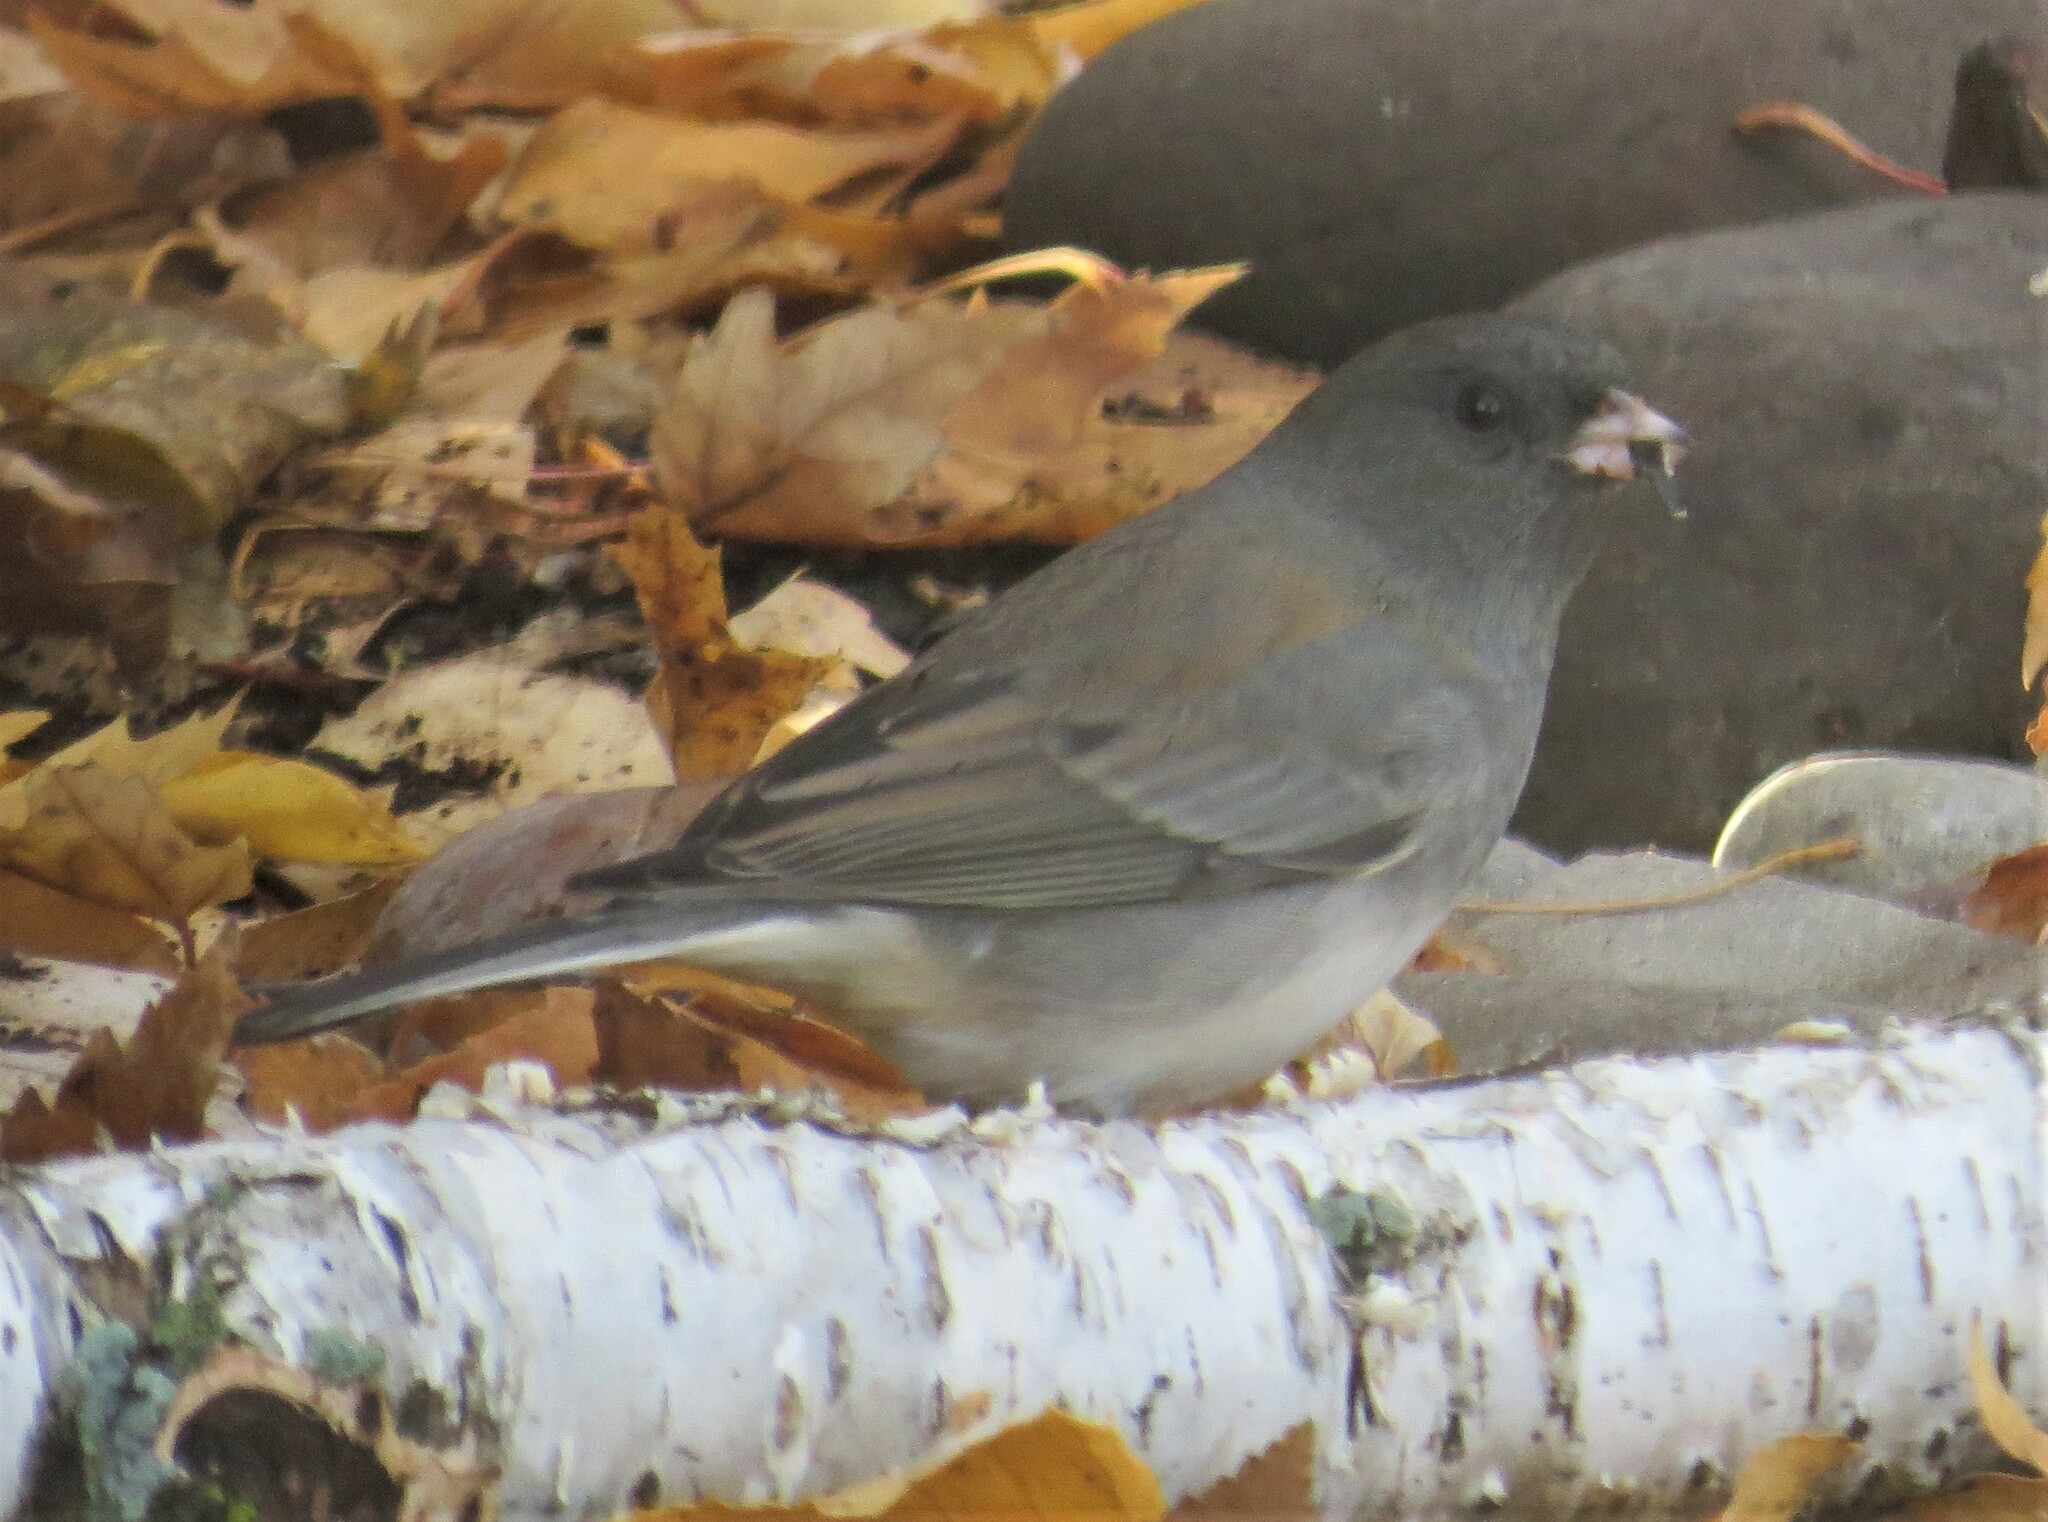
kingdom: Animalia
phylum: Chordata
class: Aves
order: Passeriformes
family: Passerellidae
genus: Junco
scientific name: Junco hyemalis
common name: Dark-eyed junco
